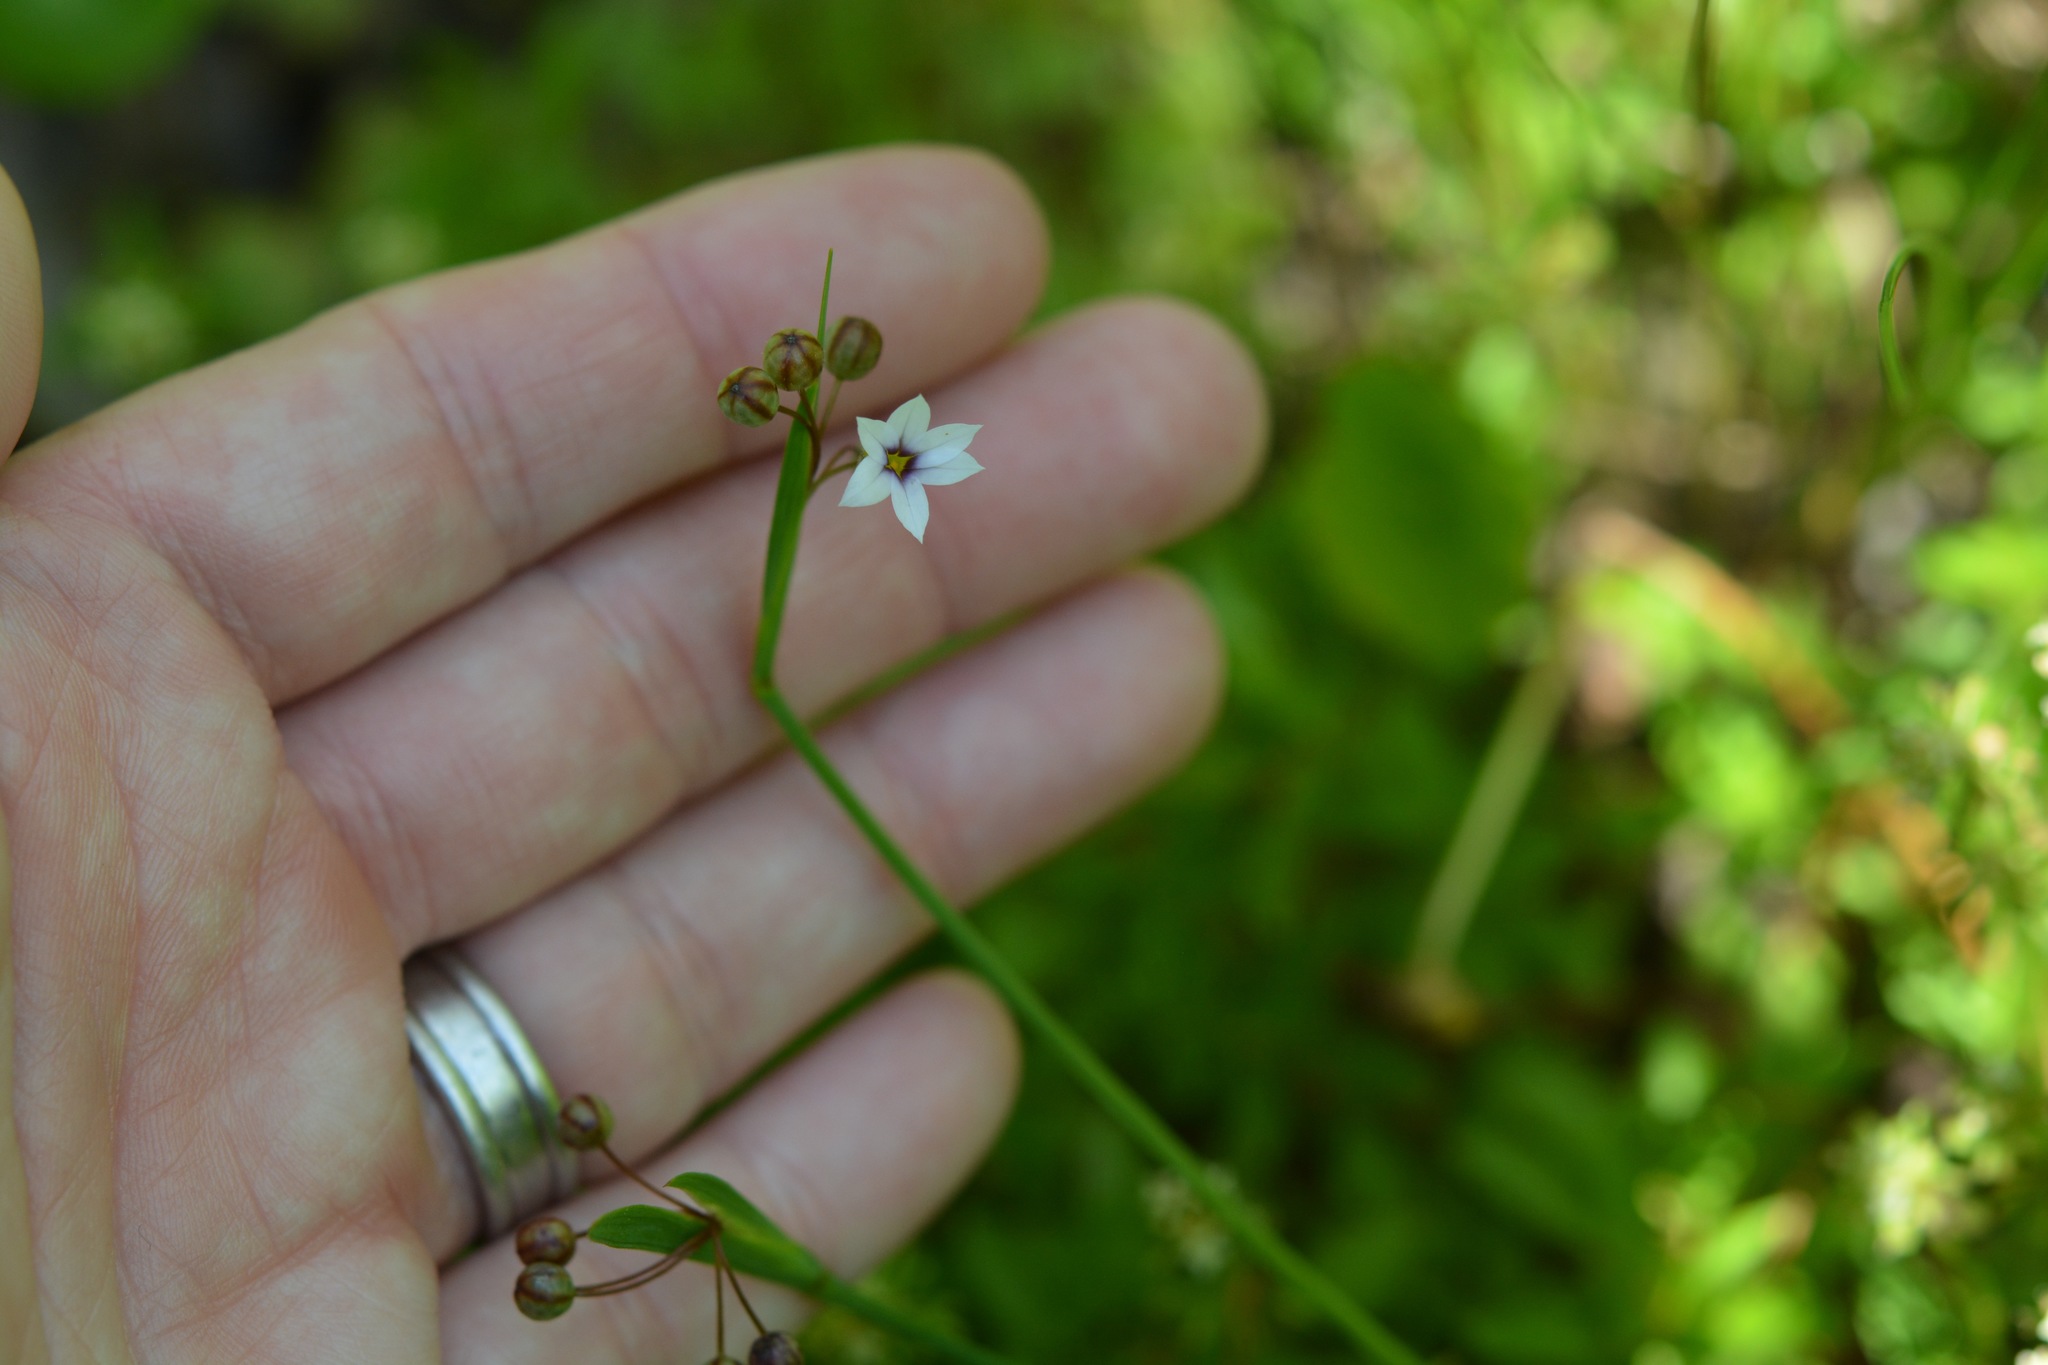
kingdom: Plantae
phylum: Tracheophyta
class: Liliopsida
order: Asparagales
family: Iridaceae
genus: Sisyrinchium
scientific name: Sisyrinchium micranthum
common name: Bermuda pigroot
